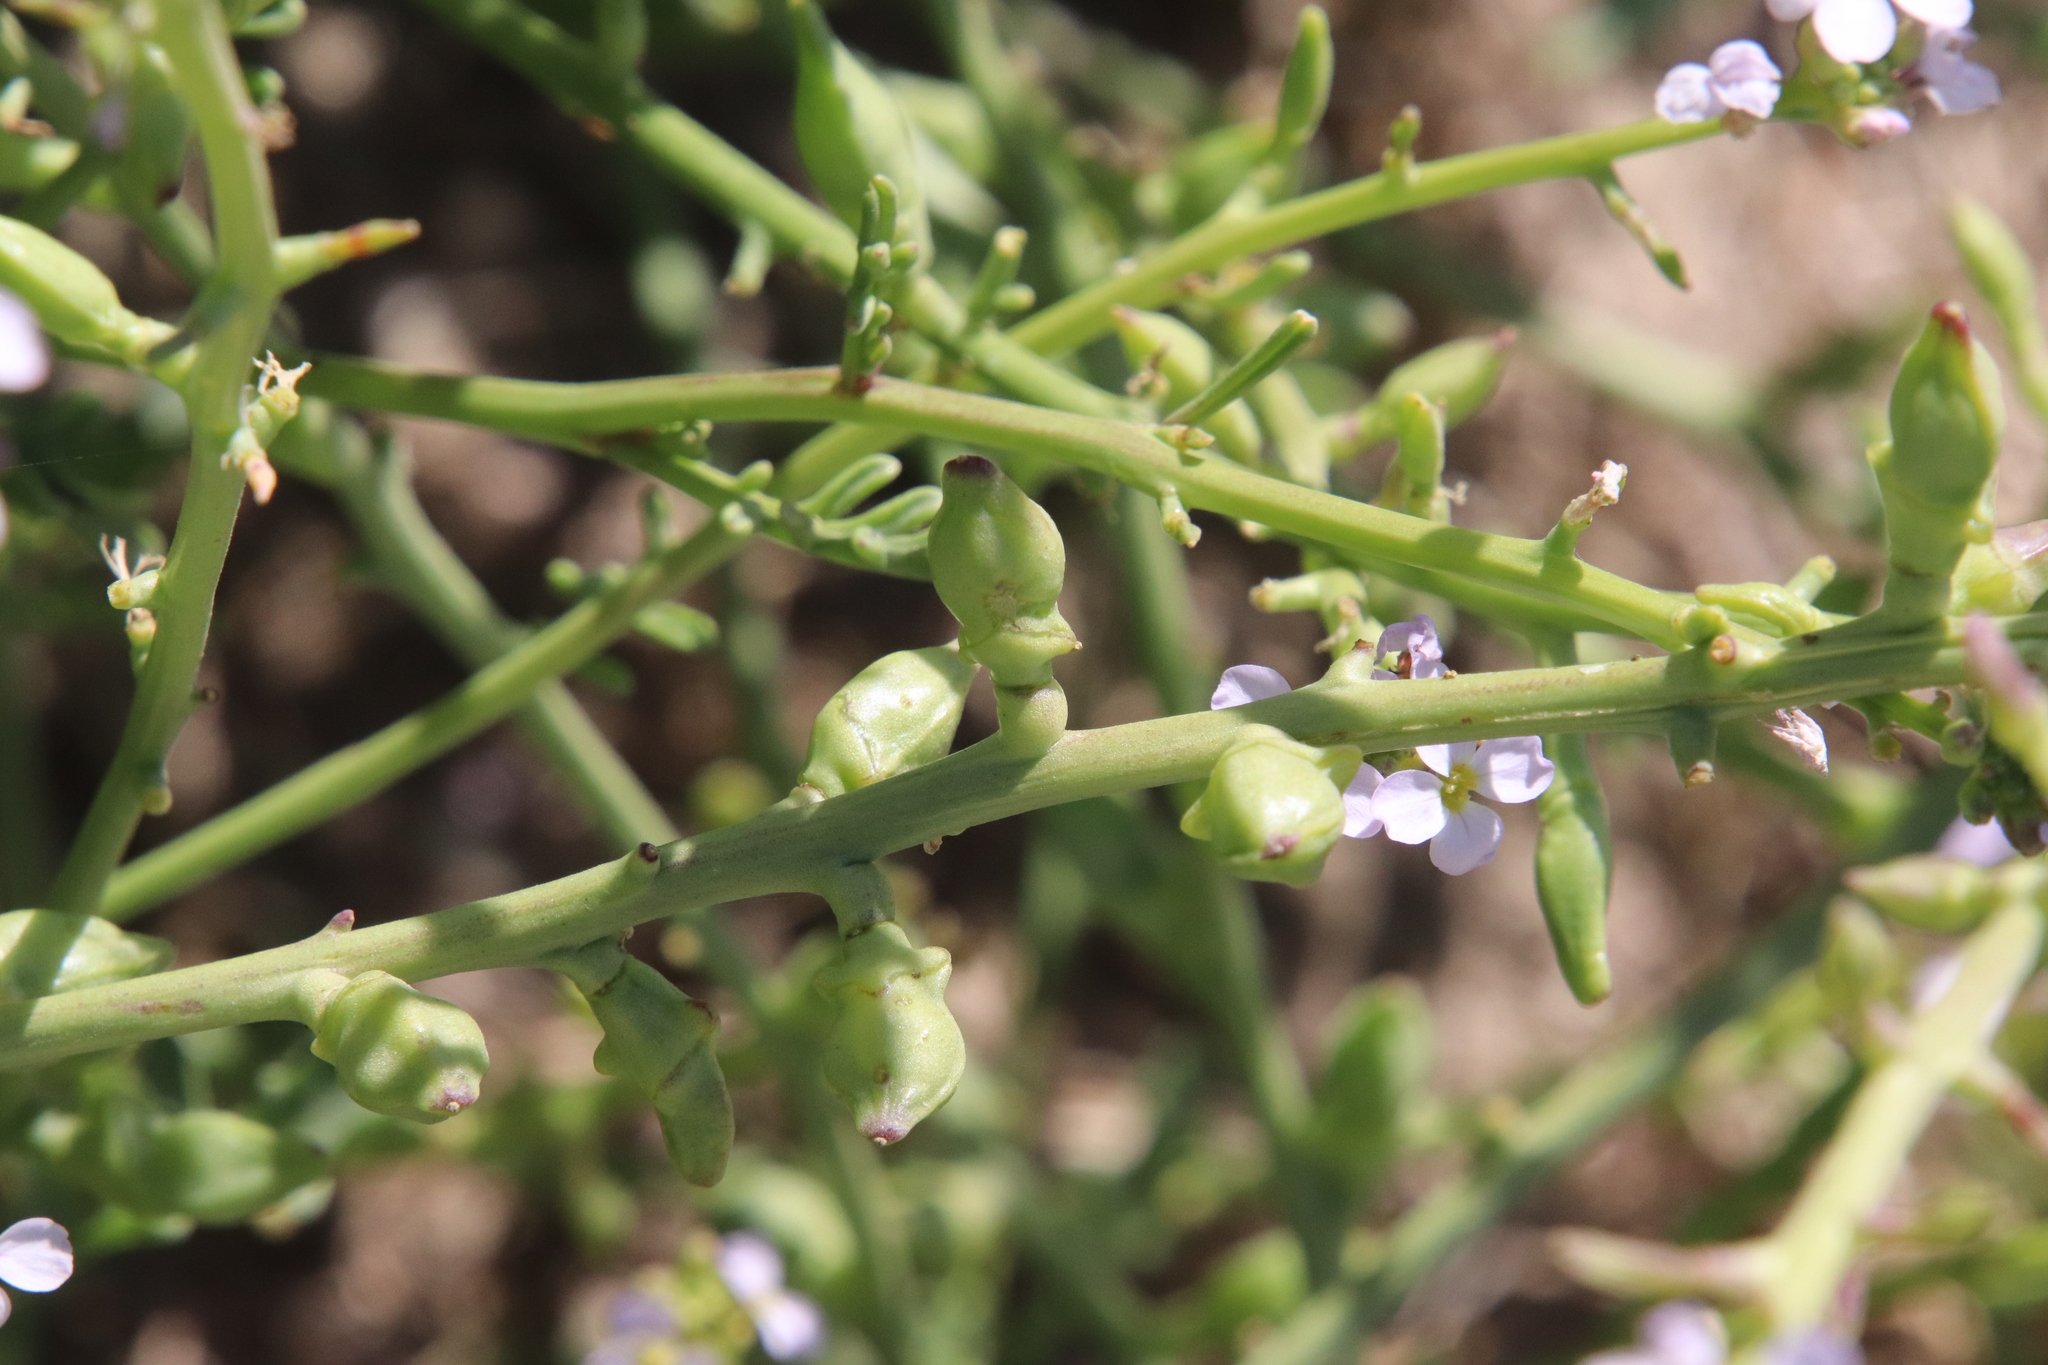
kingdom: Plantae
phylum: Tracheophyta
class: Magnoliopsida
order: Brassicales
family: Brassicaceae
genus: Cakile
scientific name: Cakile maritima
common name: Sea rocket
